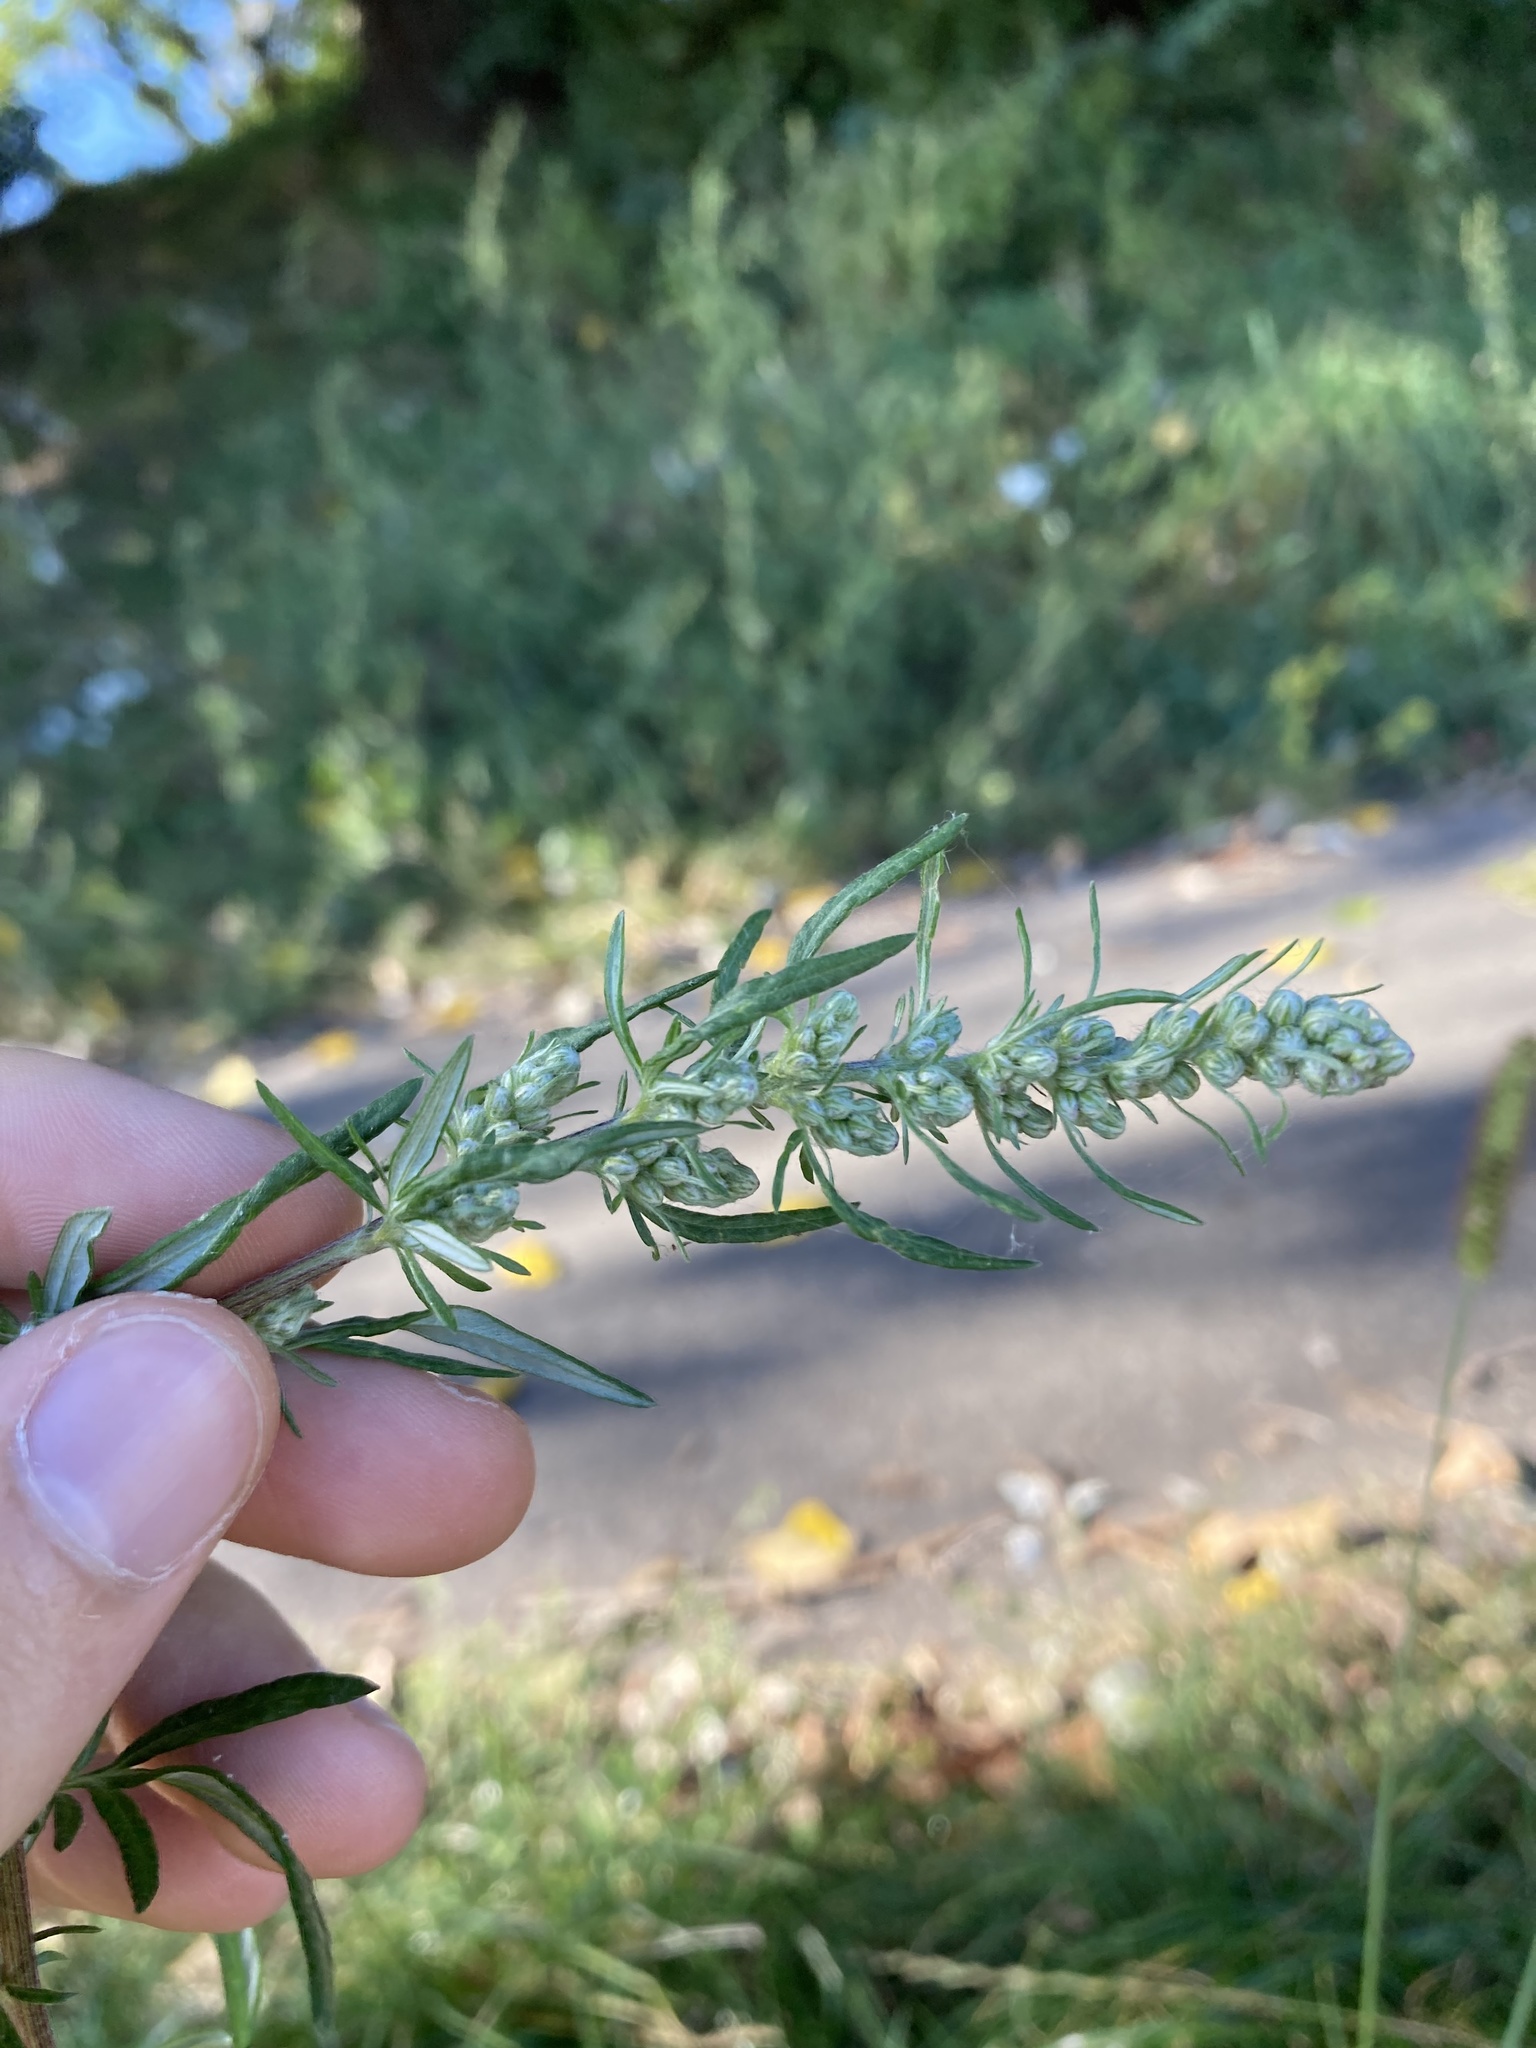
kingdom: Plantae
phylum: Tracheophyta
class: Magnoliopsida
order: Asterales
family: Asteraceae
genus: Artemisia
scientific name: Artemisia vulgaris
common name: Mugwort
